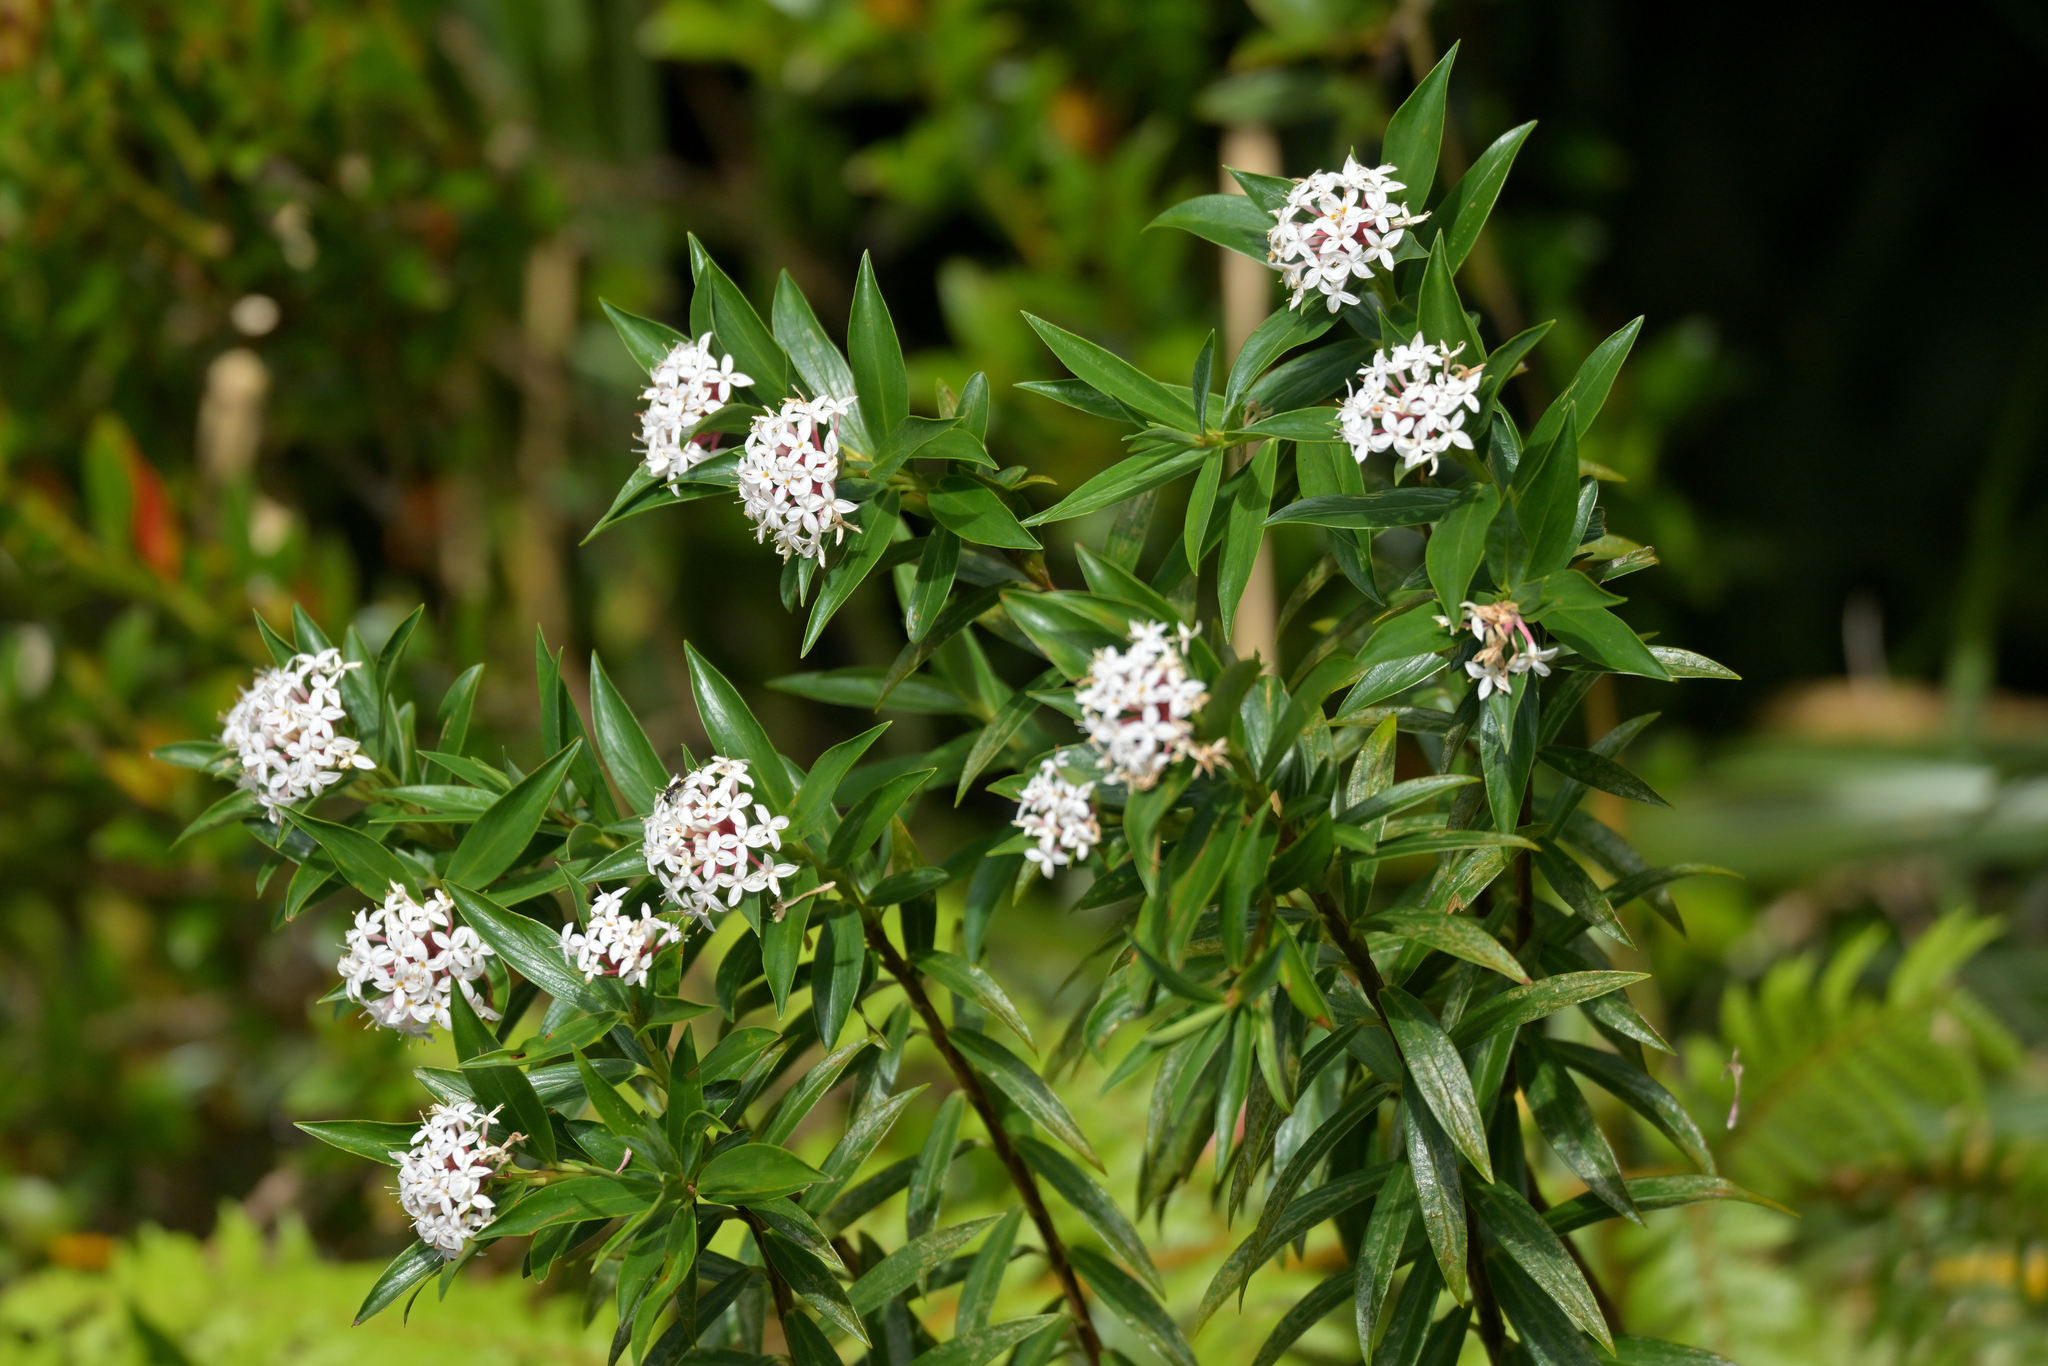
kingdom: Plantae
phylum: Tracheophyta
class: Magnoliopsida
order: Malvales
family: Thymelaeaceae
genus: Pimelea
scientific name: Pimelea longifolia
